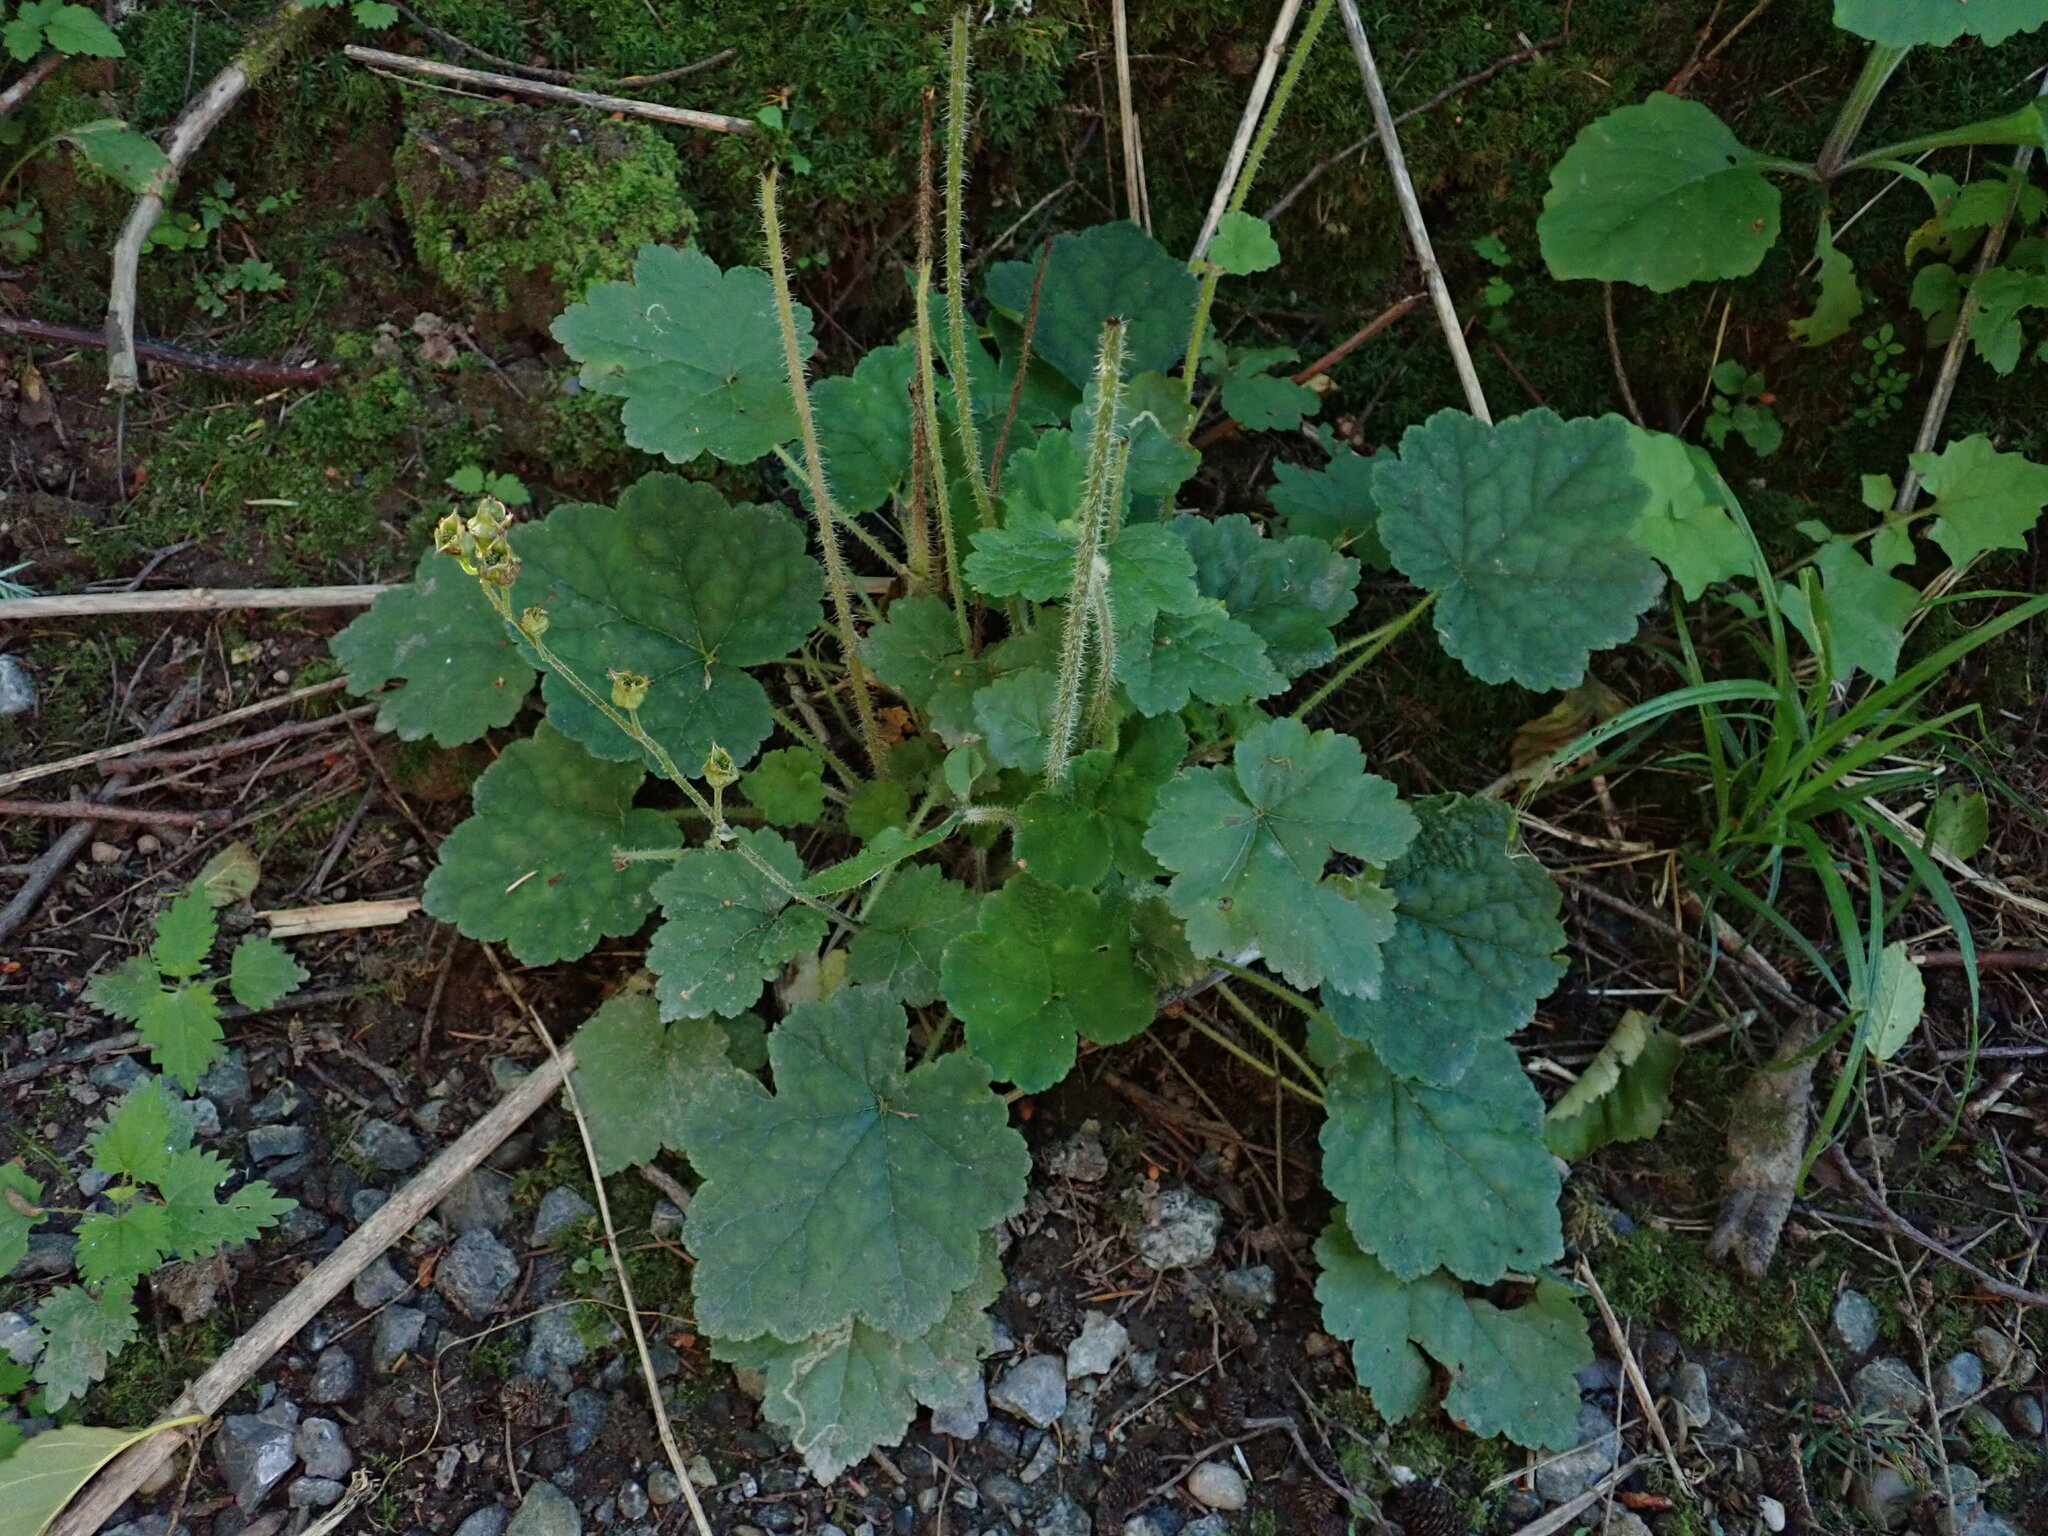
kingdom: Plantae
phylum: Tracheophyta
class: Magnoliopsida
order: Saxifragales
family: Saxifragaceae
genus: Tellima
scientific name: Tellima grandiflora
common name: Fringecups
